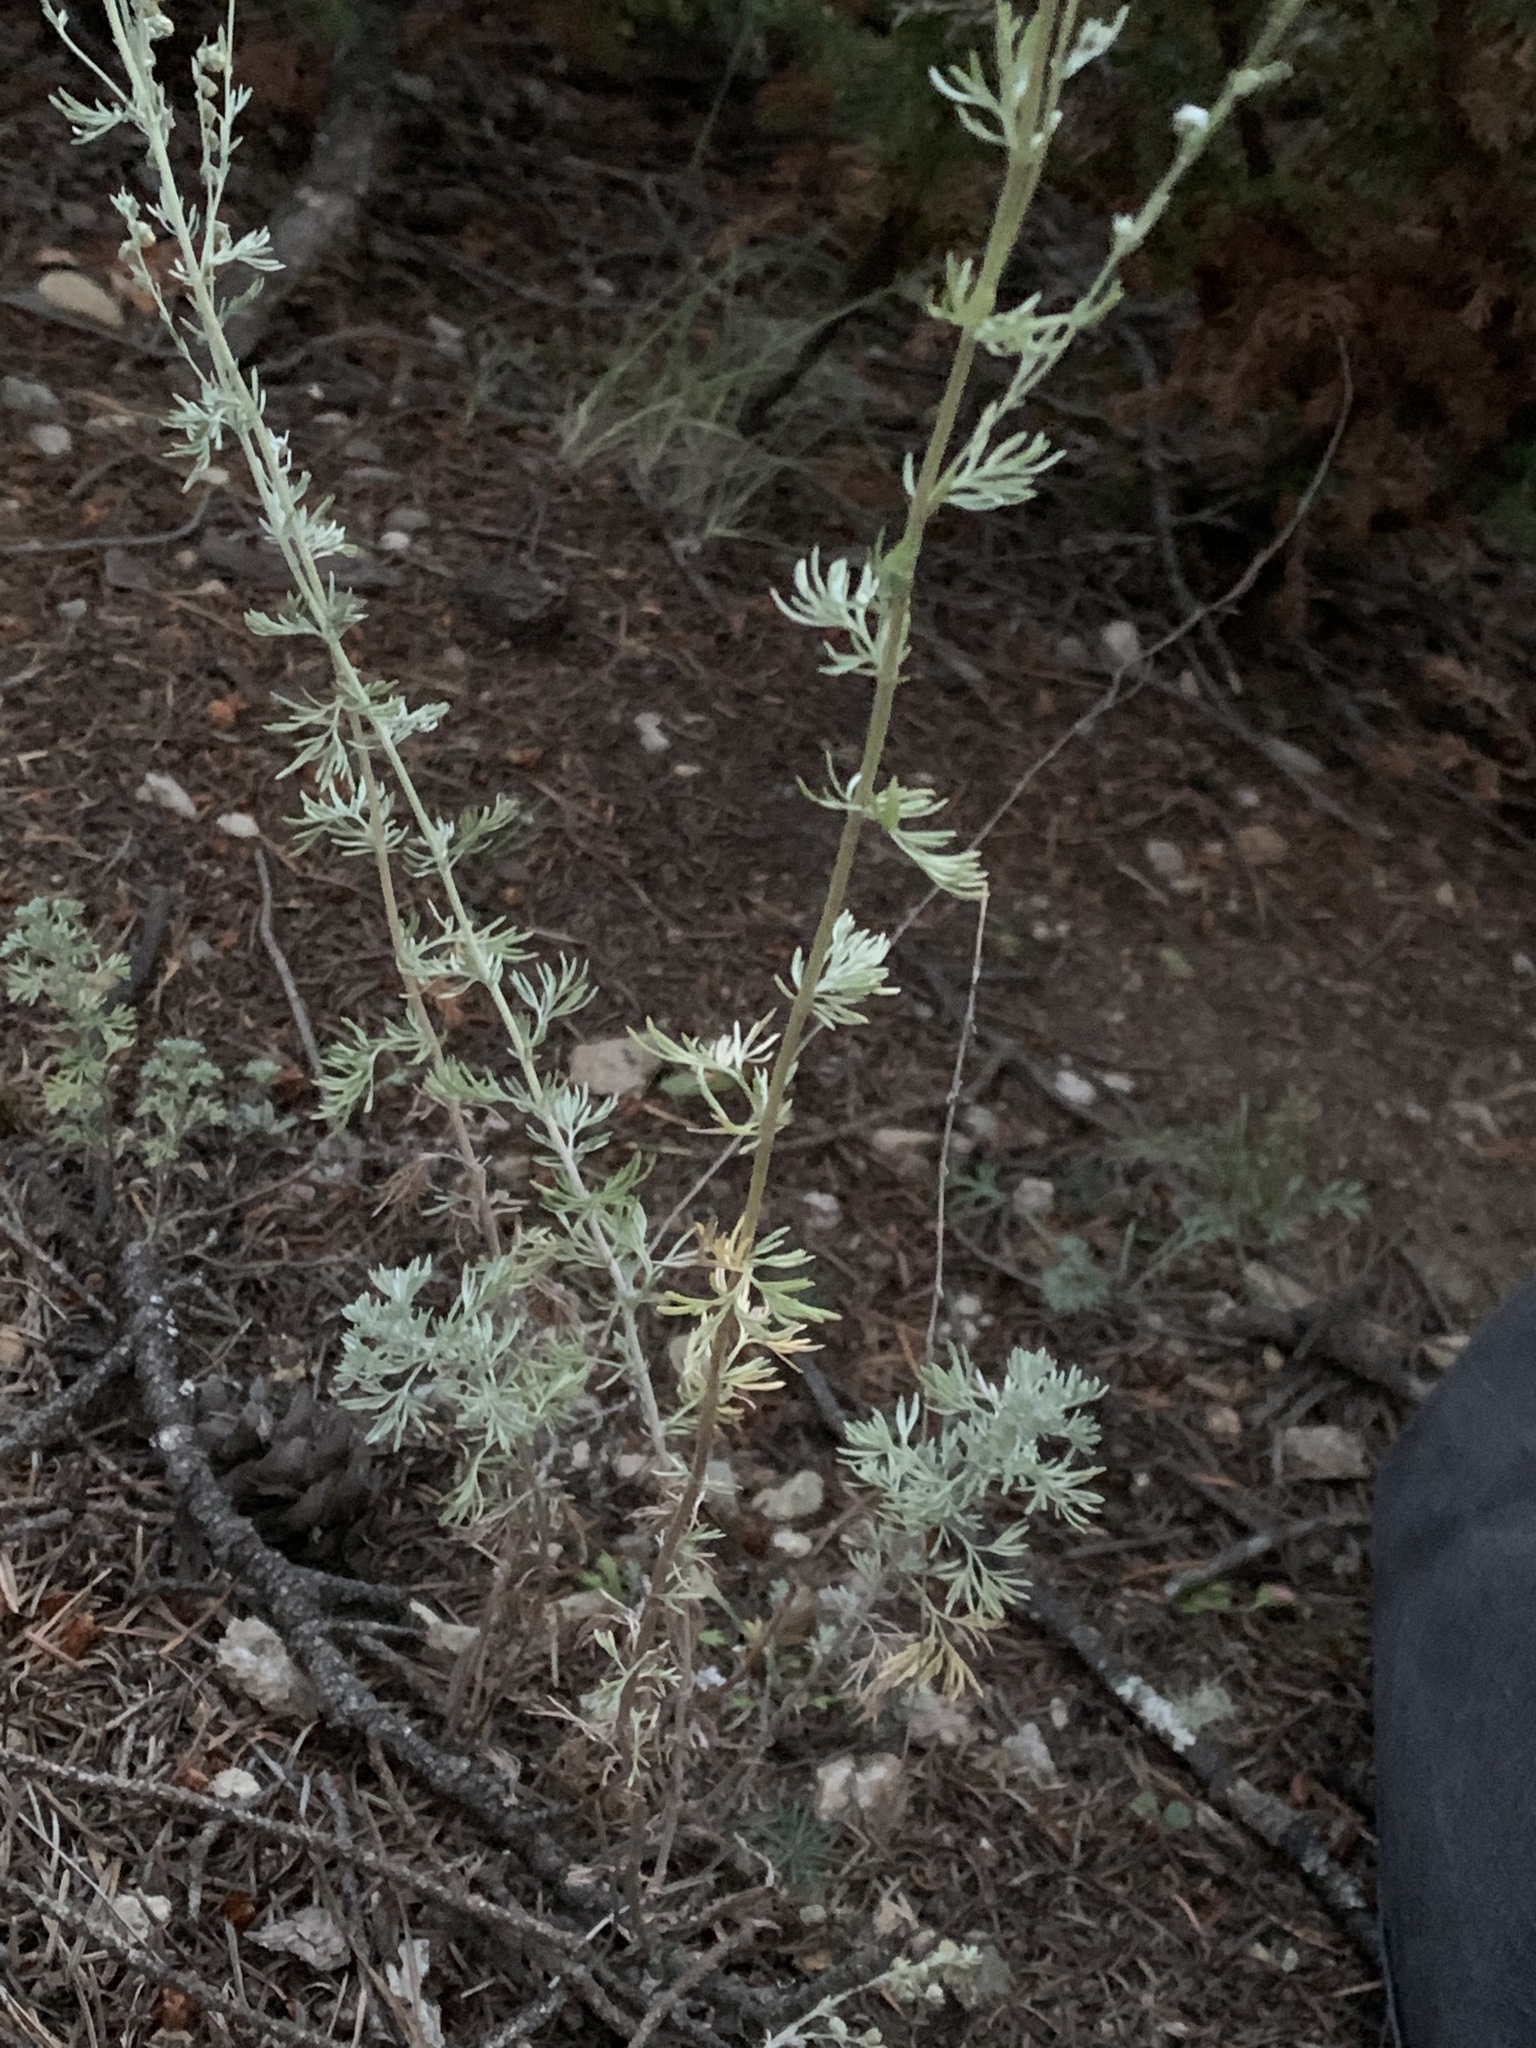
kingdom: Plantae
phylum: Tracheophyta
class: Magnoliopsida
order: Asterales
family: Asteraceae
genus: Artemisia
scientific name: Artemisia frigida
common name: Prairie sagewort
